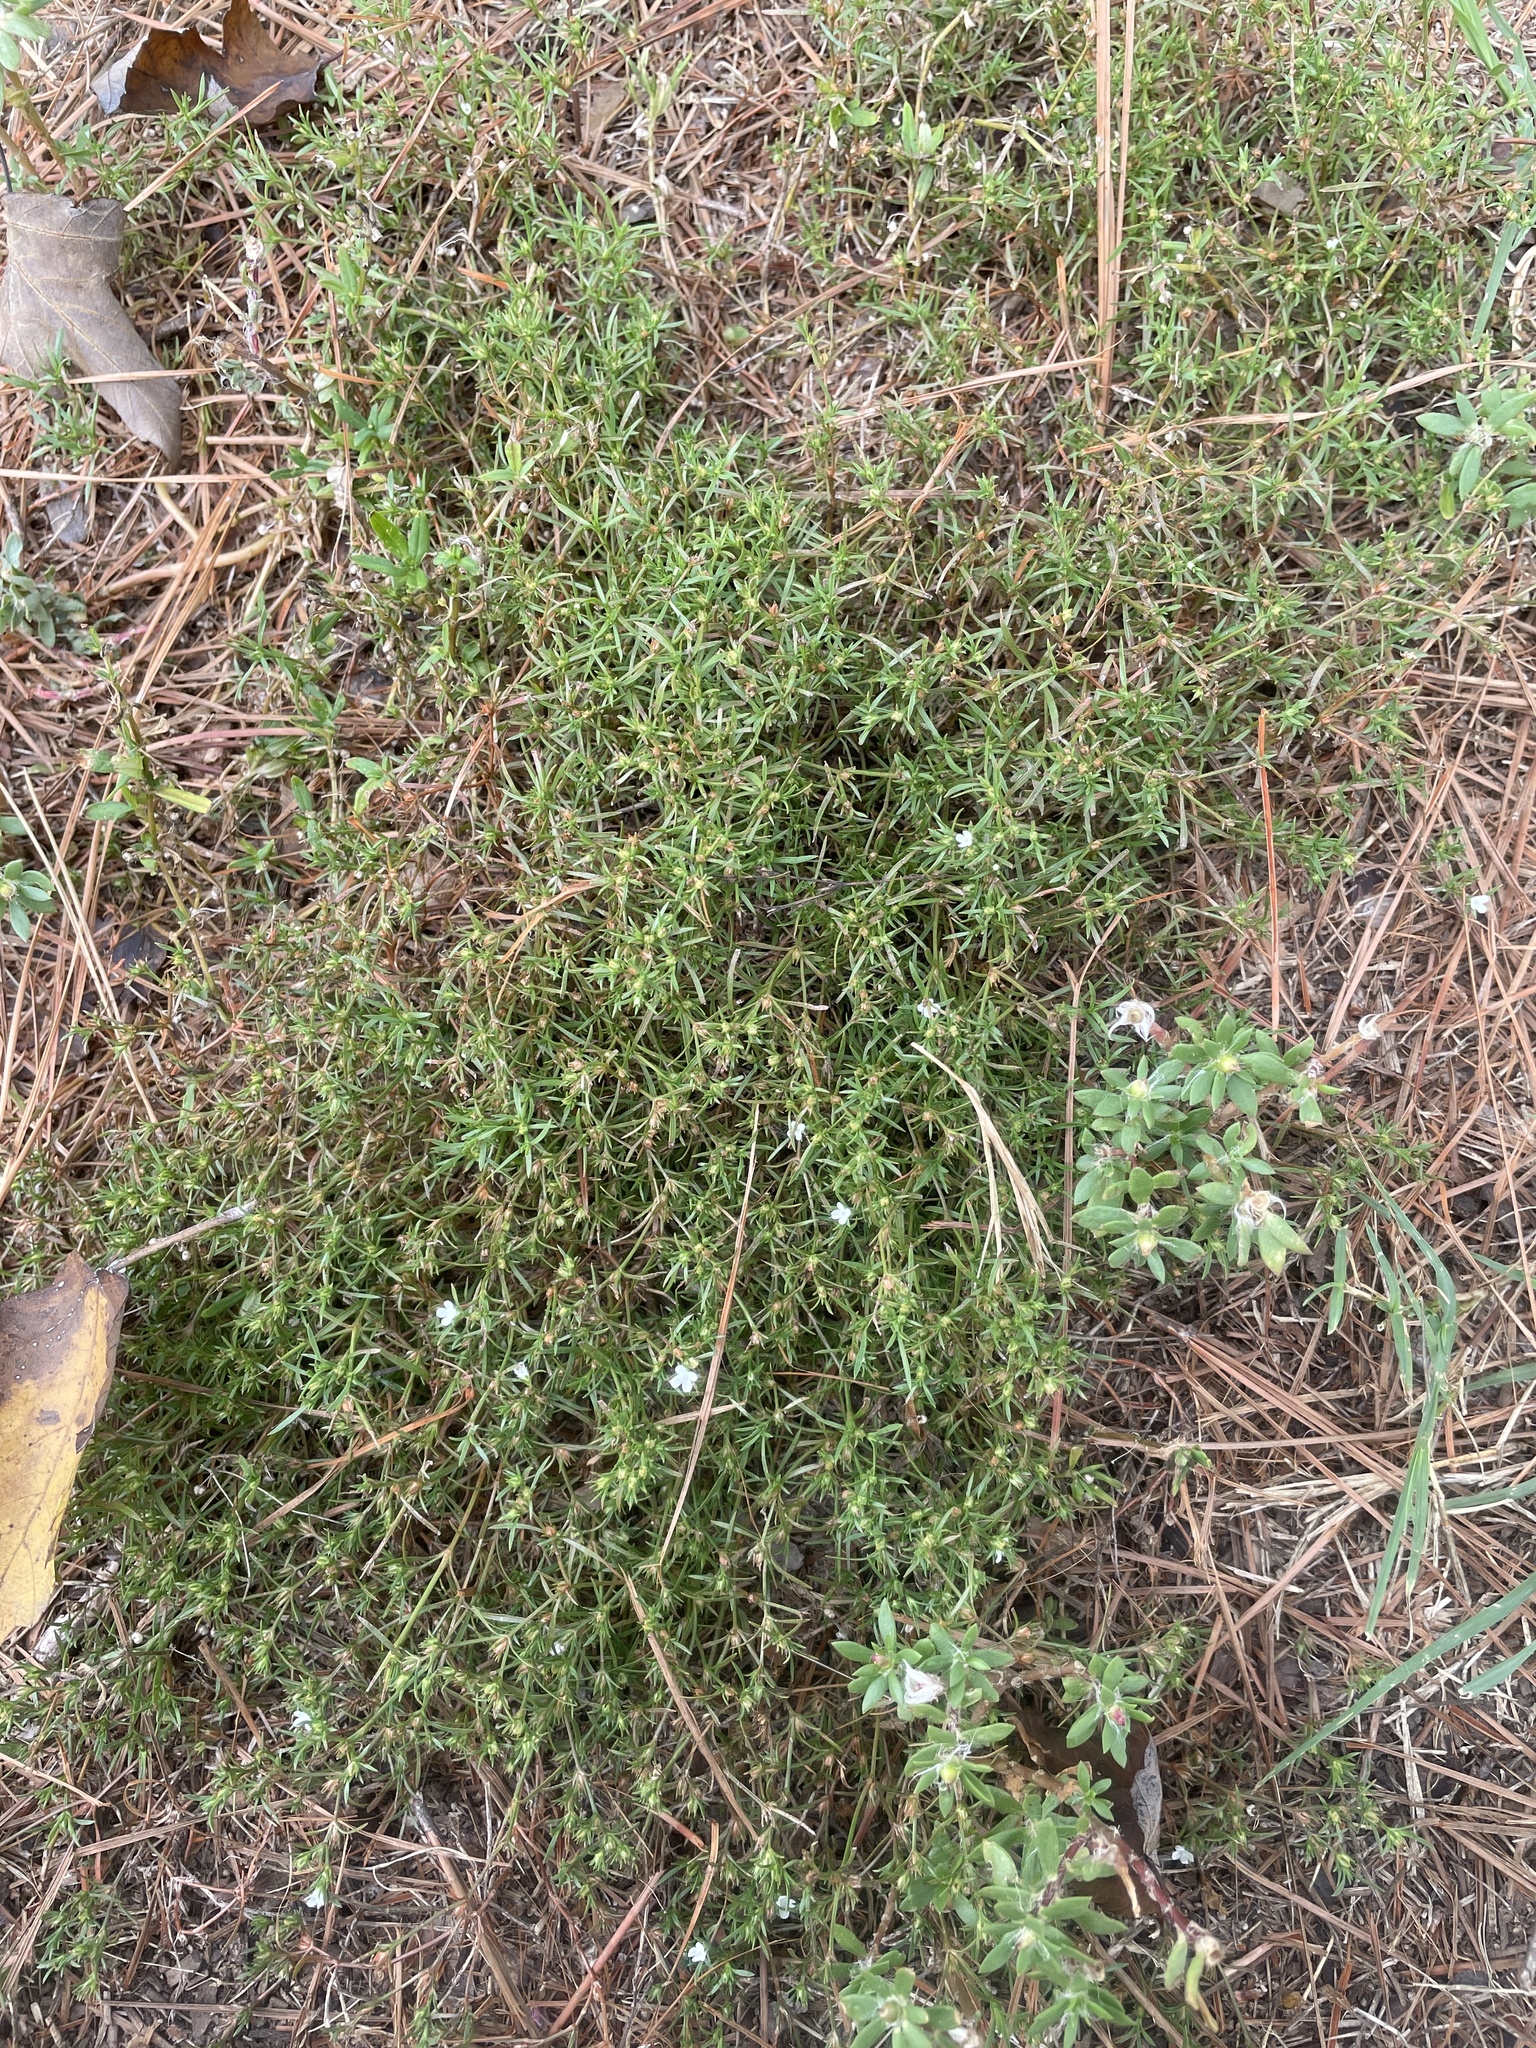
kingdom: Plantae
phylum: Tracheophyta
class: Magnoliopsida
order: Lamiales
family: Tetrachondraceae
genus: Polypremum
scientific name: Polypremum procumbens
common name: Juniper-leaf
